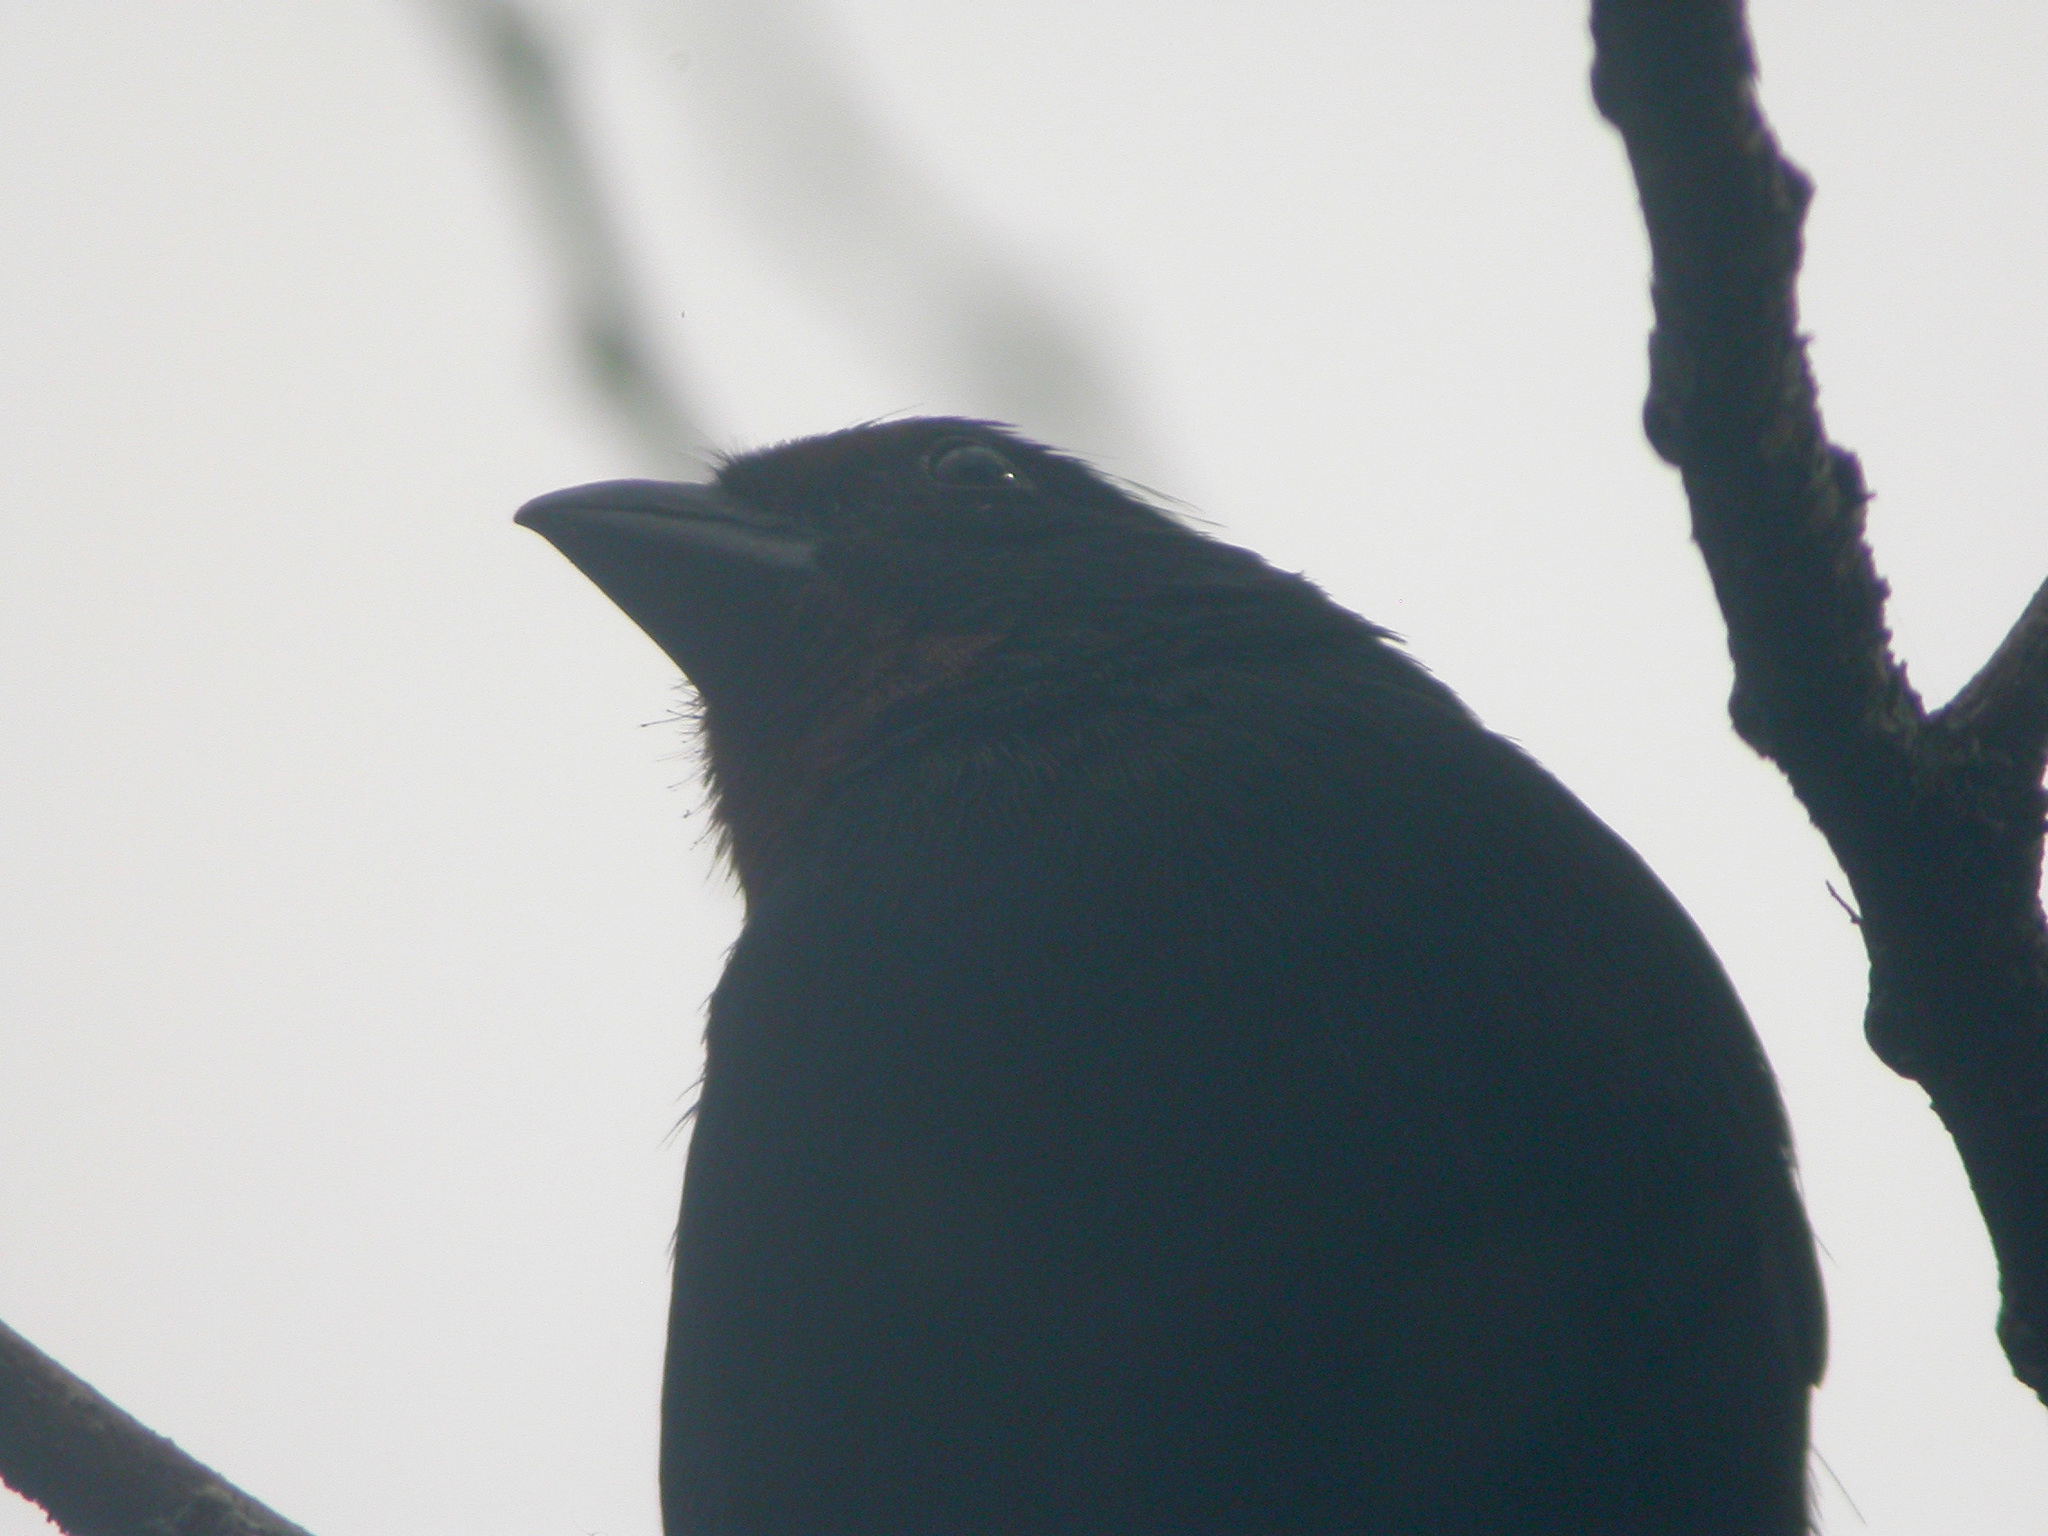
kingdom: Animalia
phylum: Chordata
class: Aves
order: Passeriformes
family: Thraupidae
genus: Loxigilla
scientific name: Loxigilla noctis
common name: Lesser antillean bullfinch
